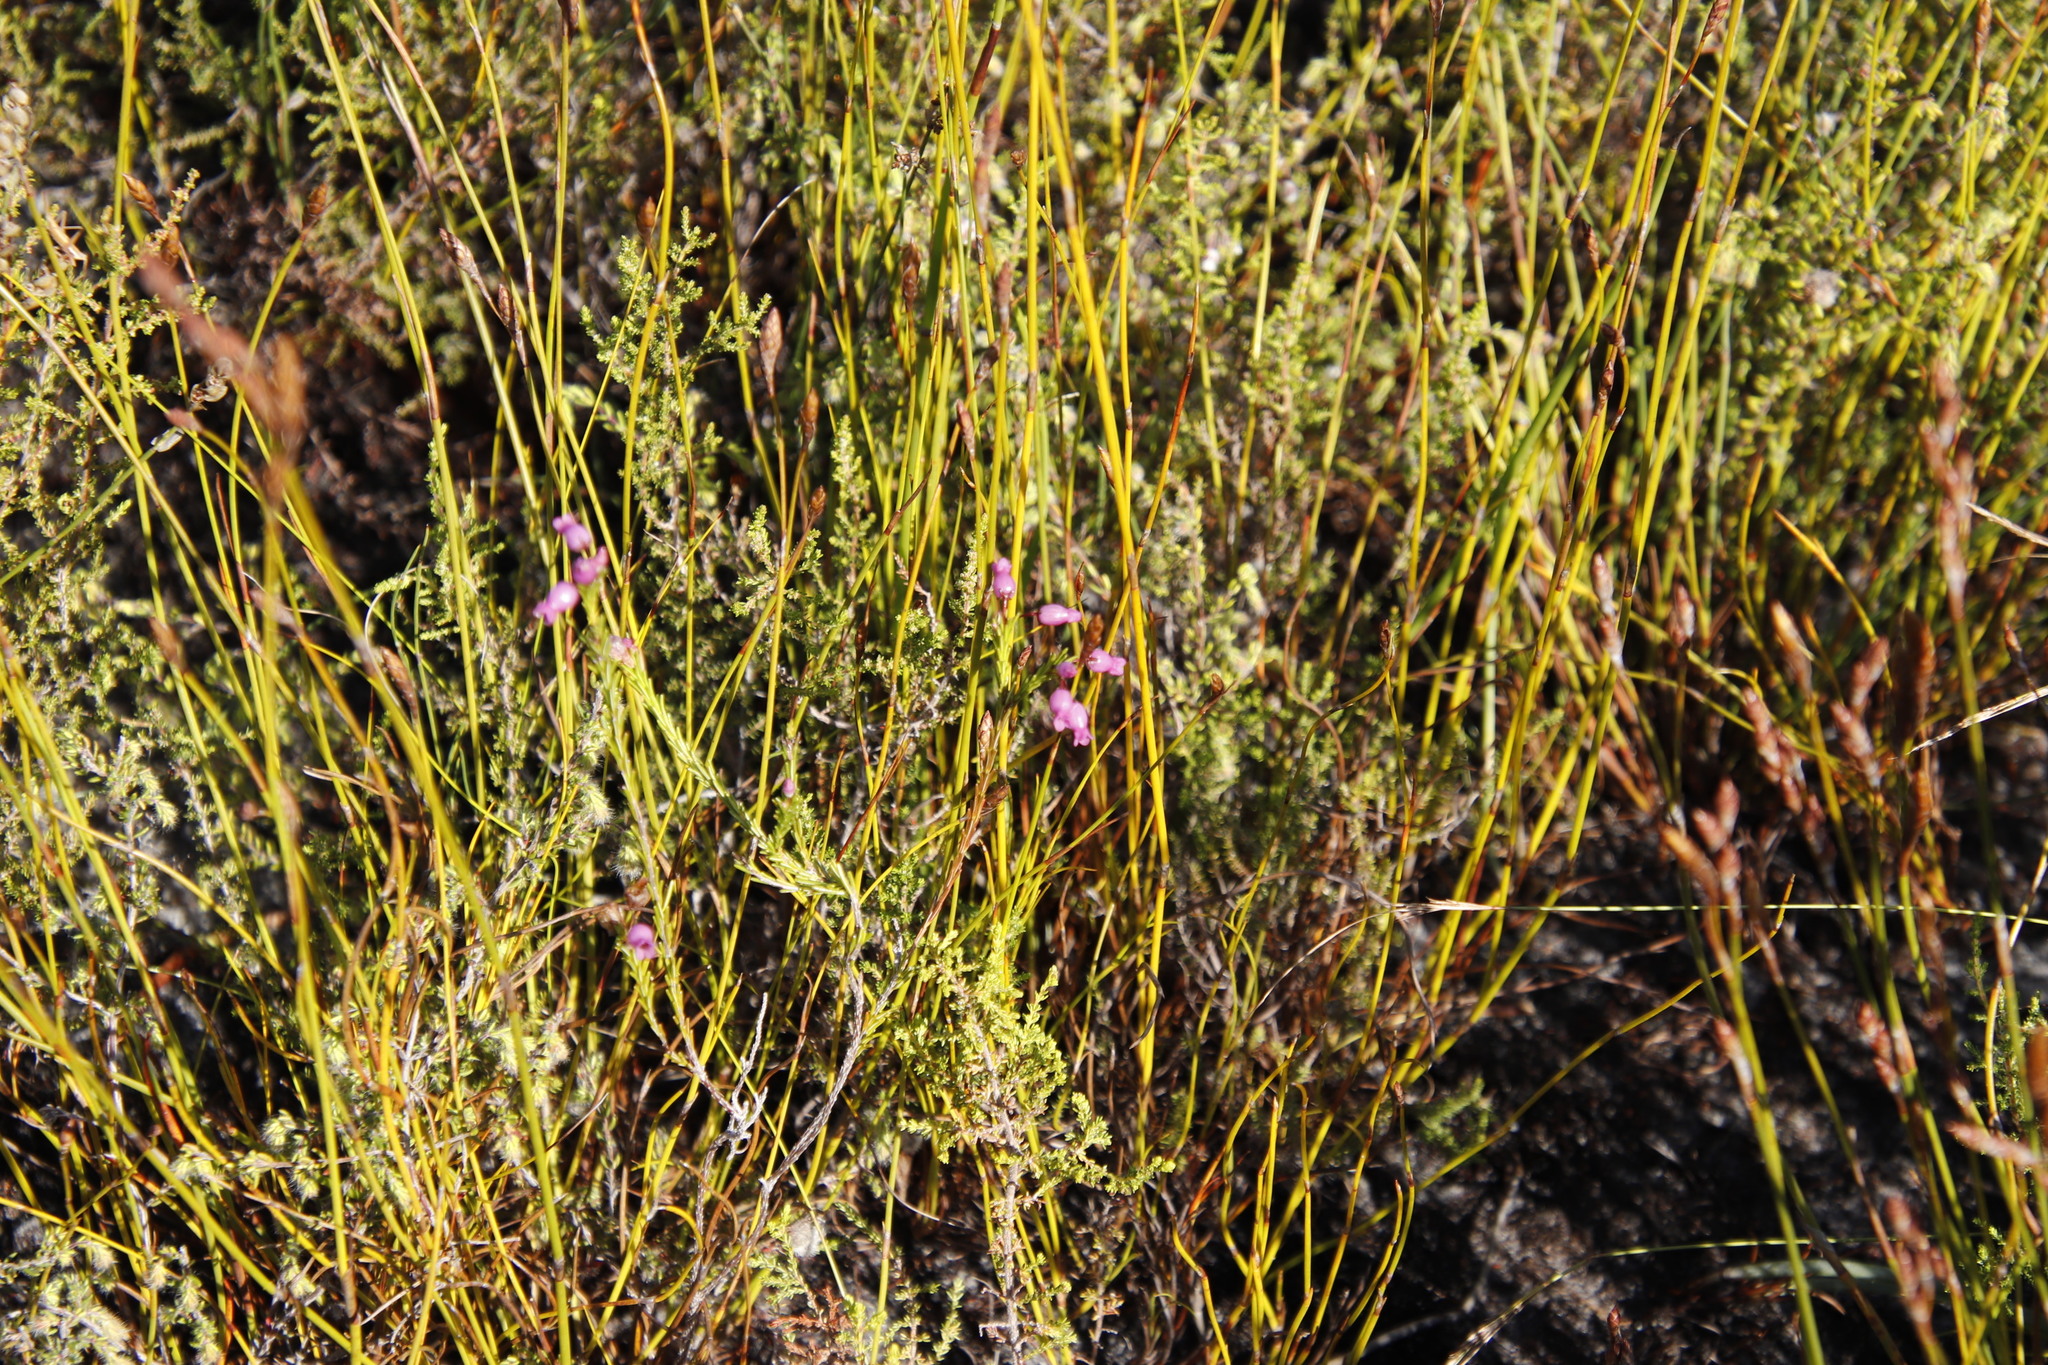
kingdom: Plantae
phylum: Tracheophyta
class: Magnoliopsida
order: Ericales
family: Ericaceae
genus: Erica
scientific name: Erica obliqua
